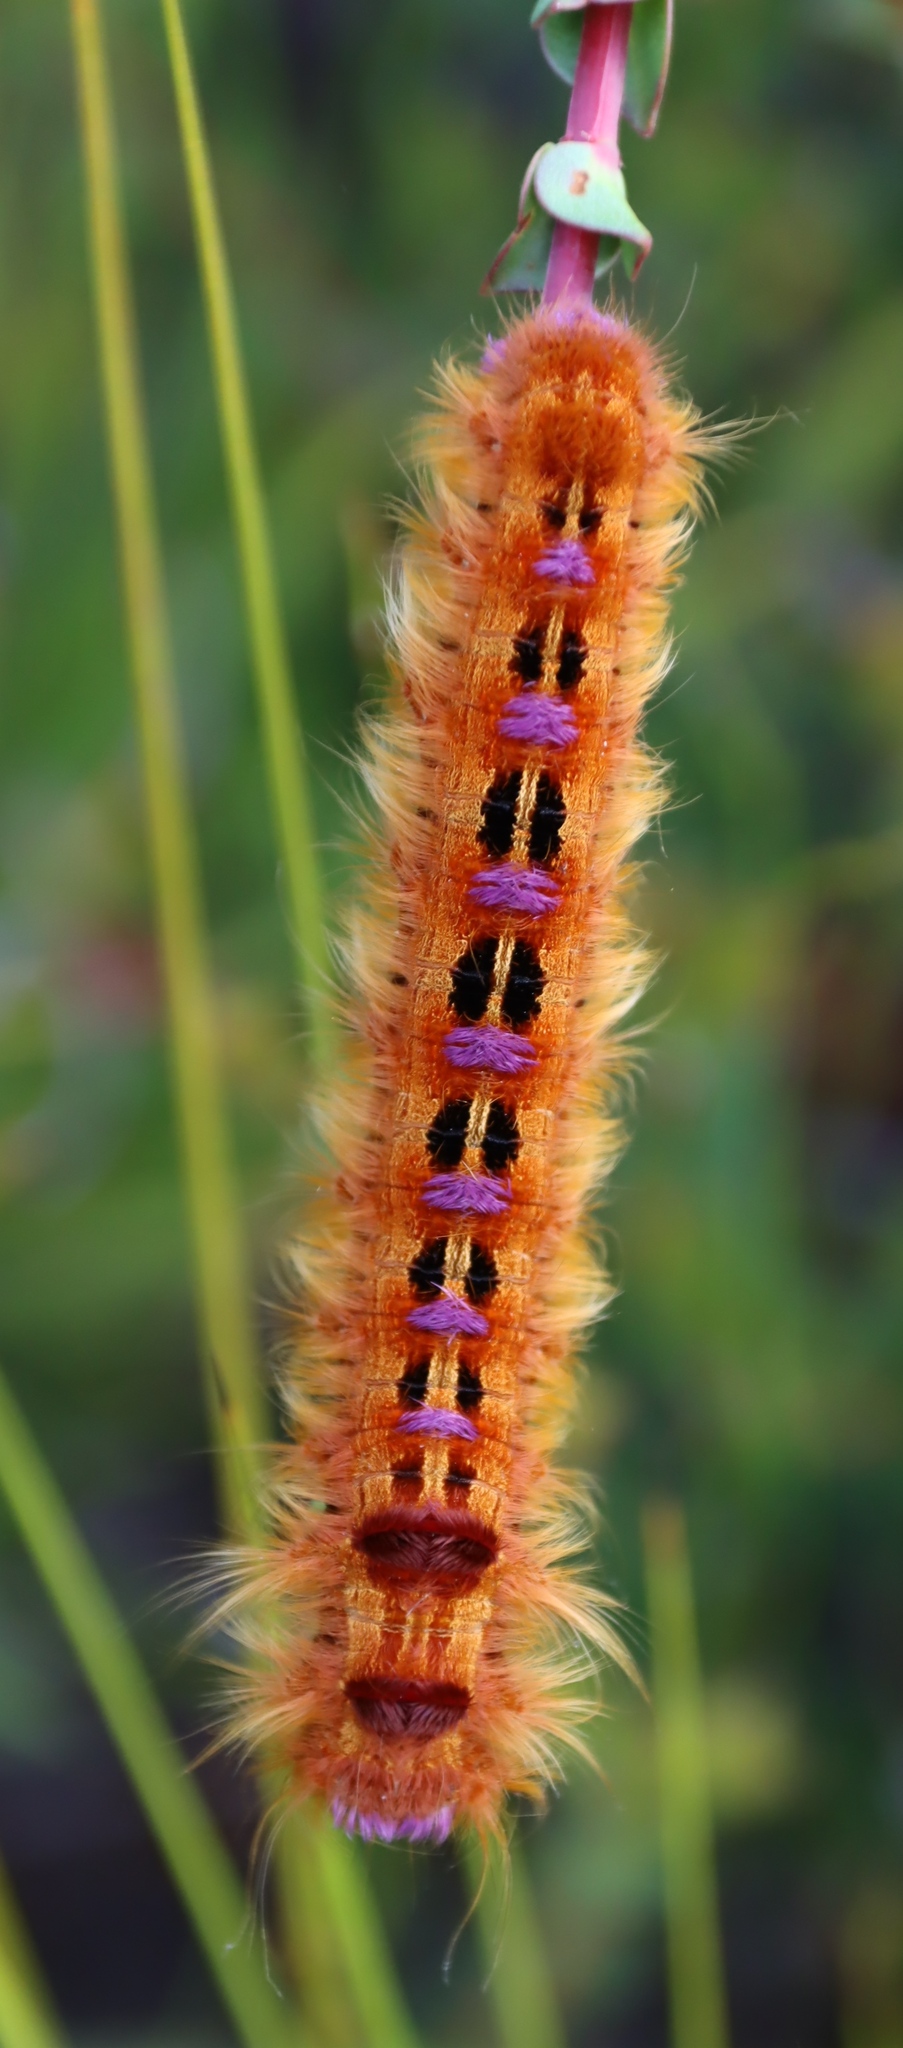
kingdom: Animalia
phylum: Arthropoda
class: Insecta
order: Lepidoptera
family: Lasiocampidae
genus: Eutricha
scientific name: Eutricha bifascia
